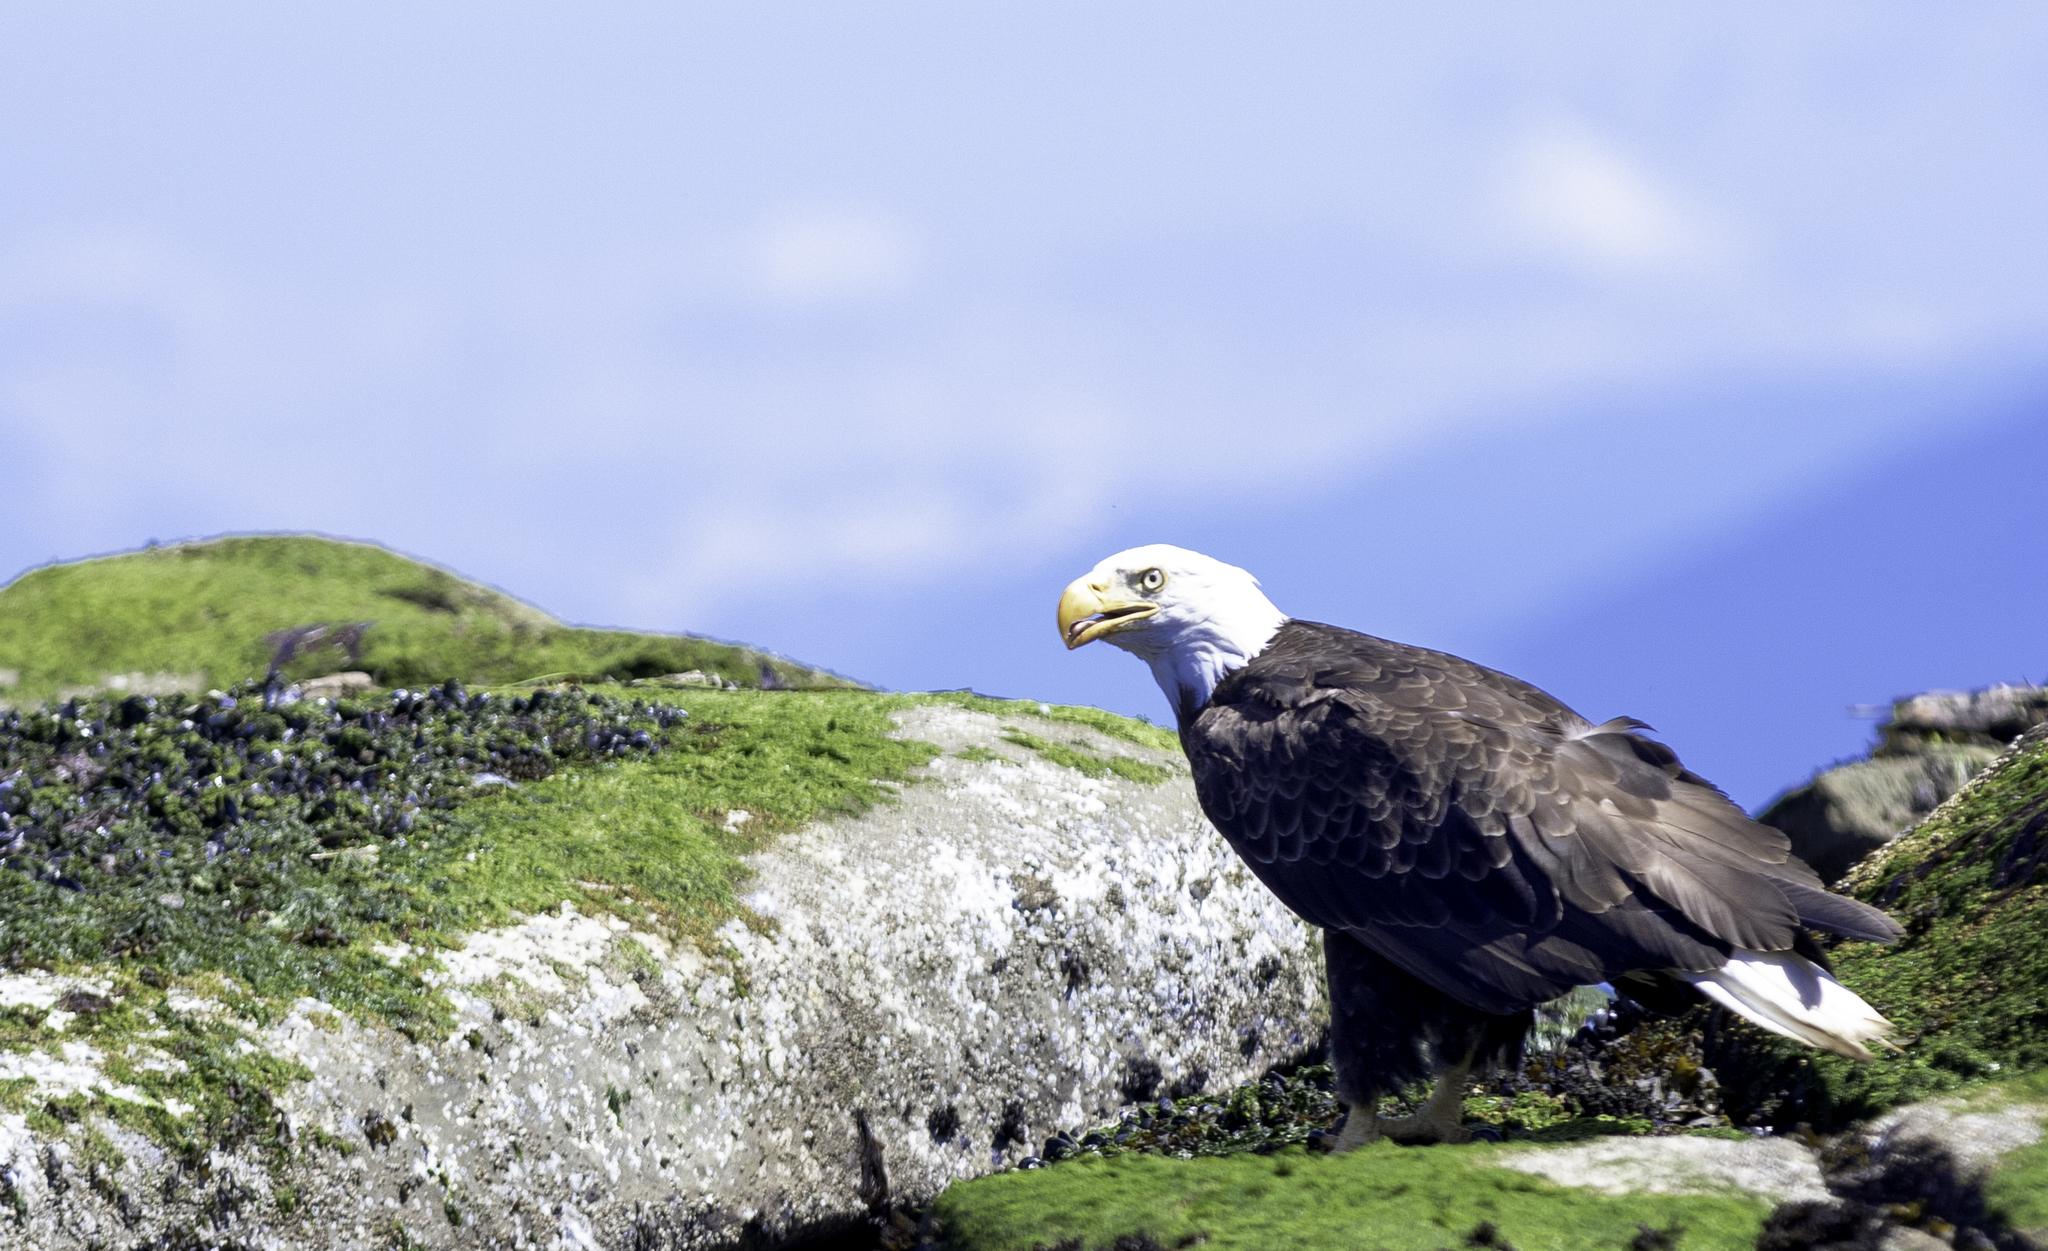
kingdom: Animalia
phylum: Chordata
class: Aves
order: Accipitriformes
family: Accipitridae
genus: Haliaeetus
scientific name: Haliaeetus leucocephalus
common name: Bald eagle
